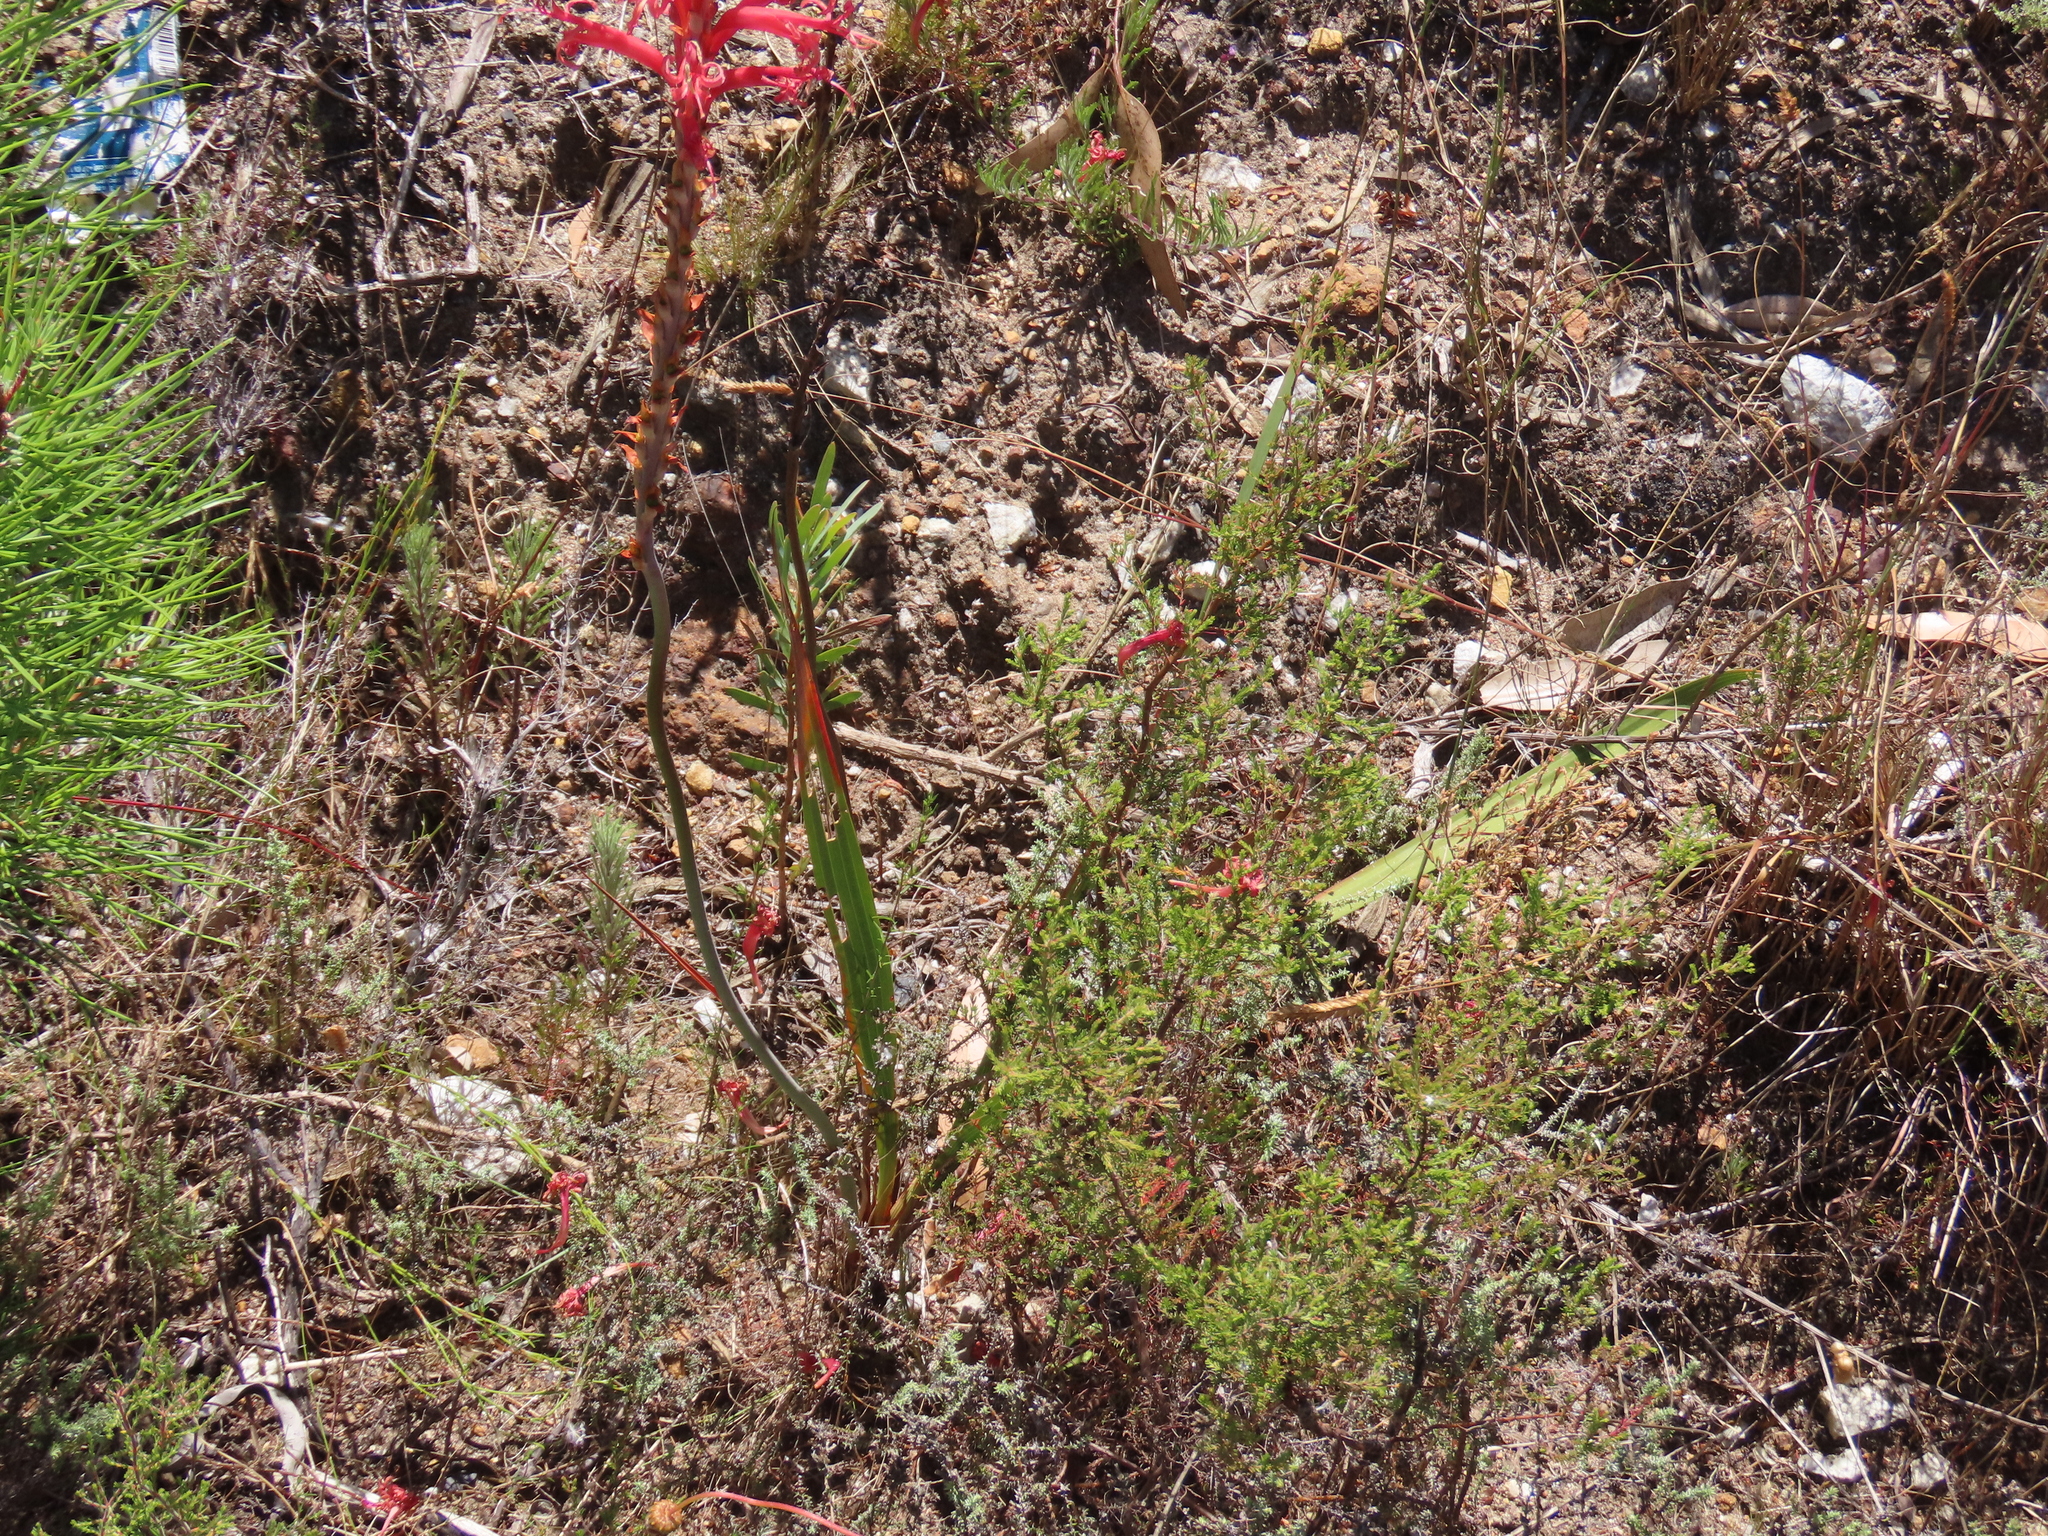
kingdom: Plantae
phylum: Tracheophyta
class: Liliopsida
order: Asparagales
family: Iridaceae
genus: Tritoniopsis
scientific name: Tritoniopsis antholyza
